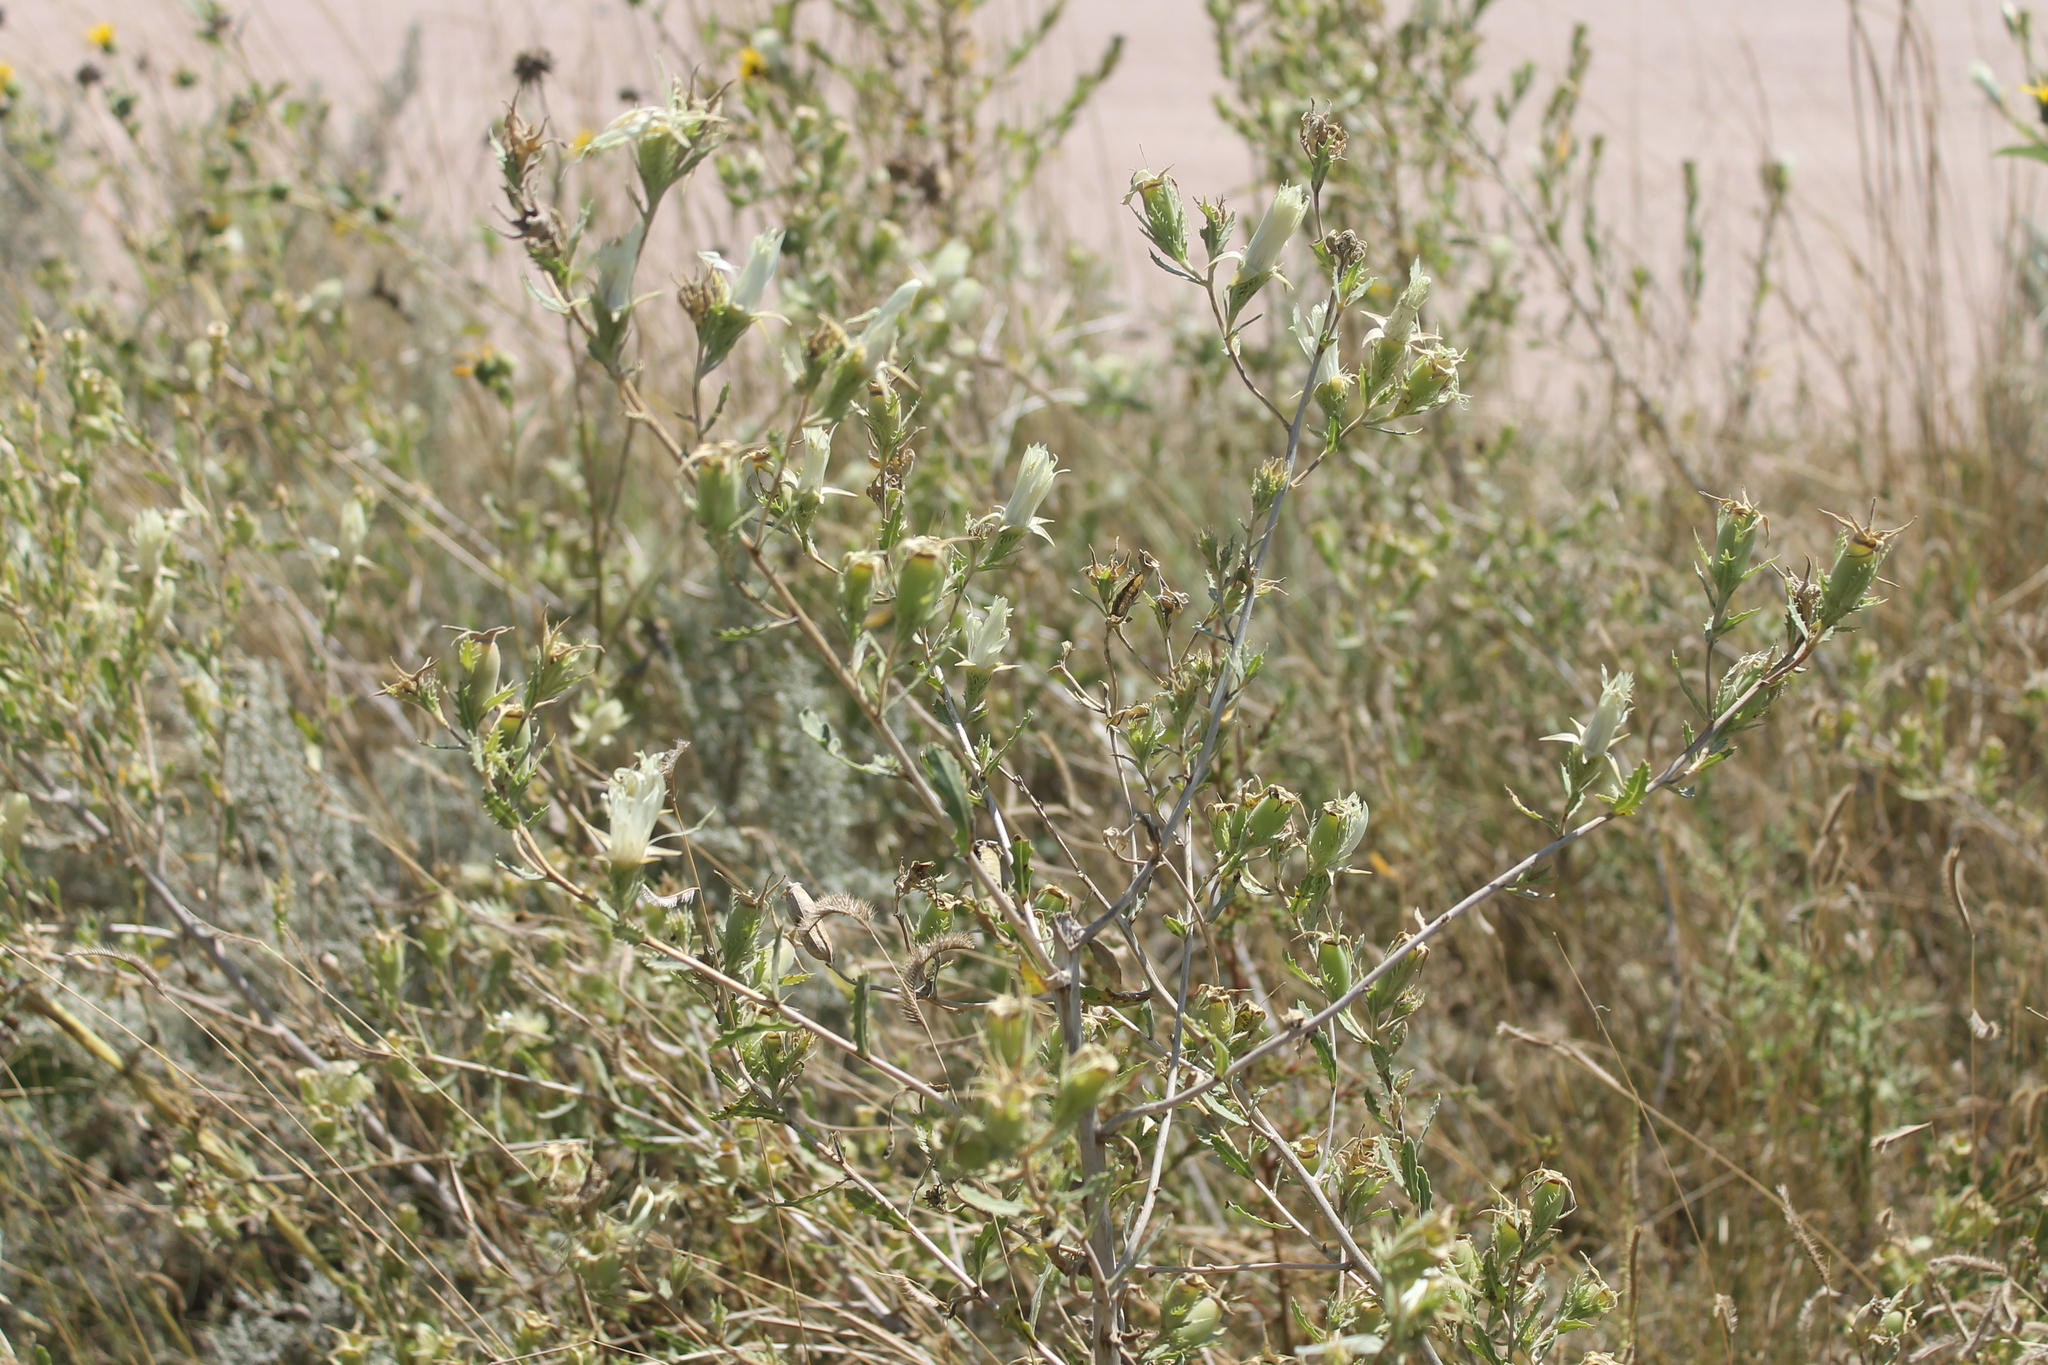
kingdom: Plantae
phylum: Tracheophyta
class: Magnoliopsida
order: Cornales
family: Loasaceae
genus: Mentzelia
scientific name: Mentzelia nuda
